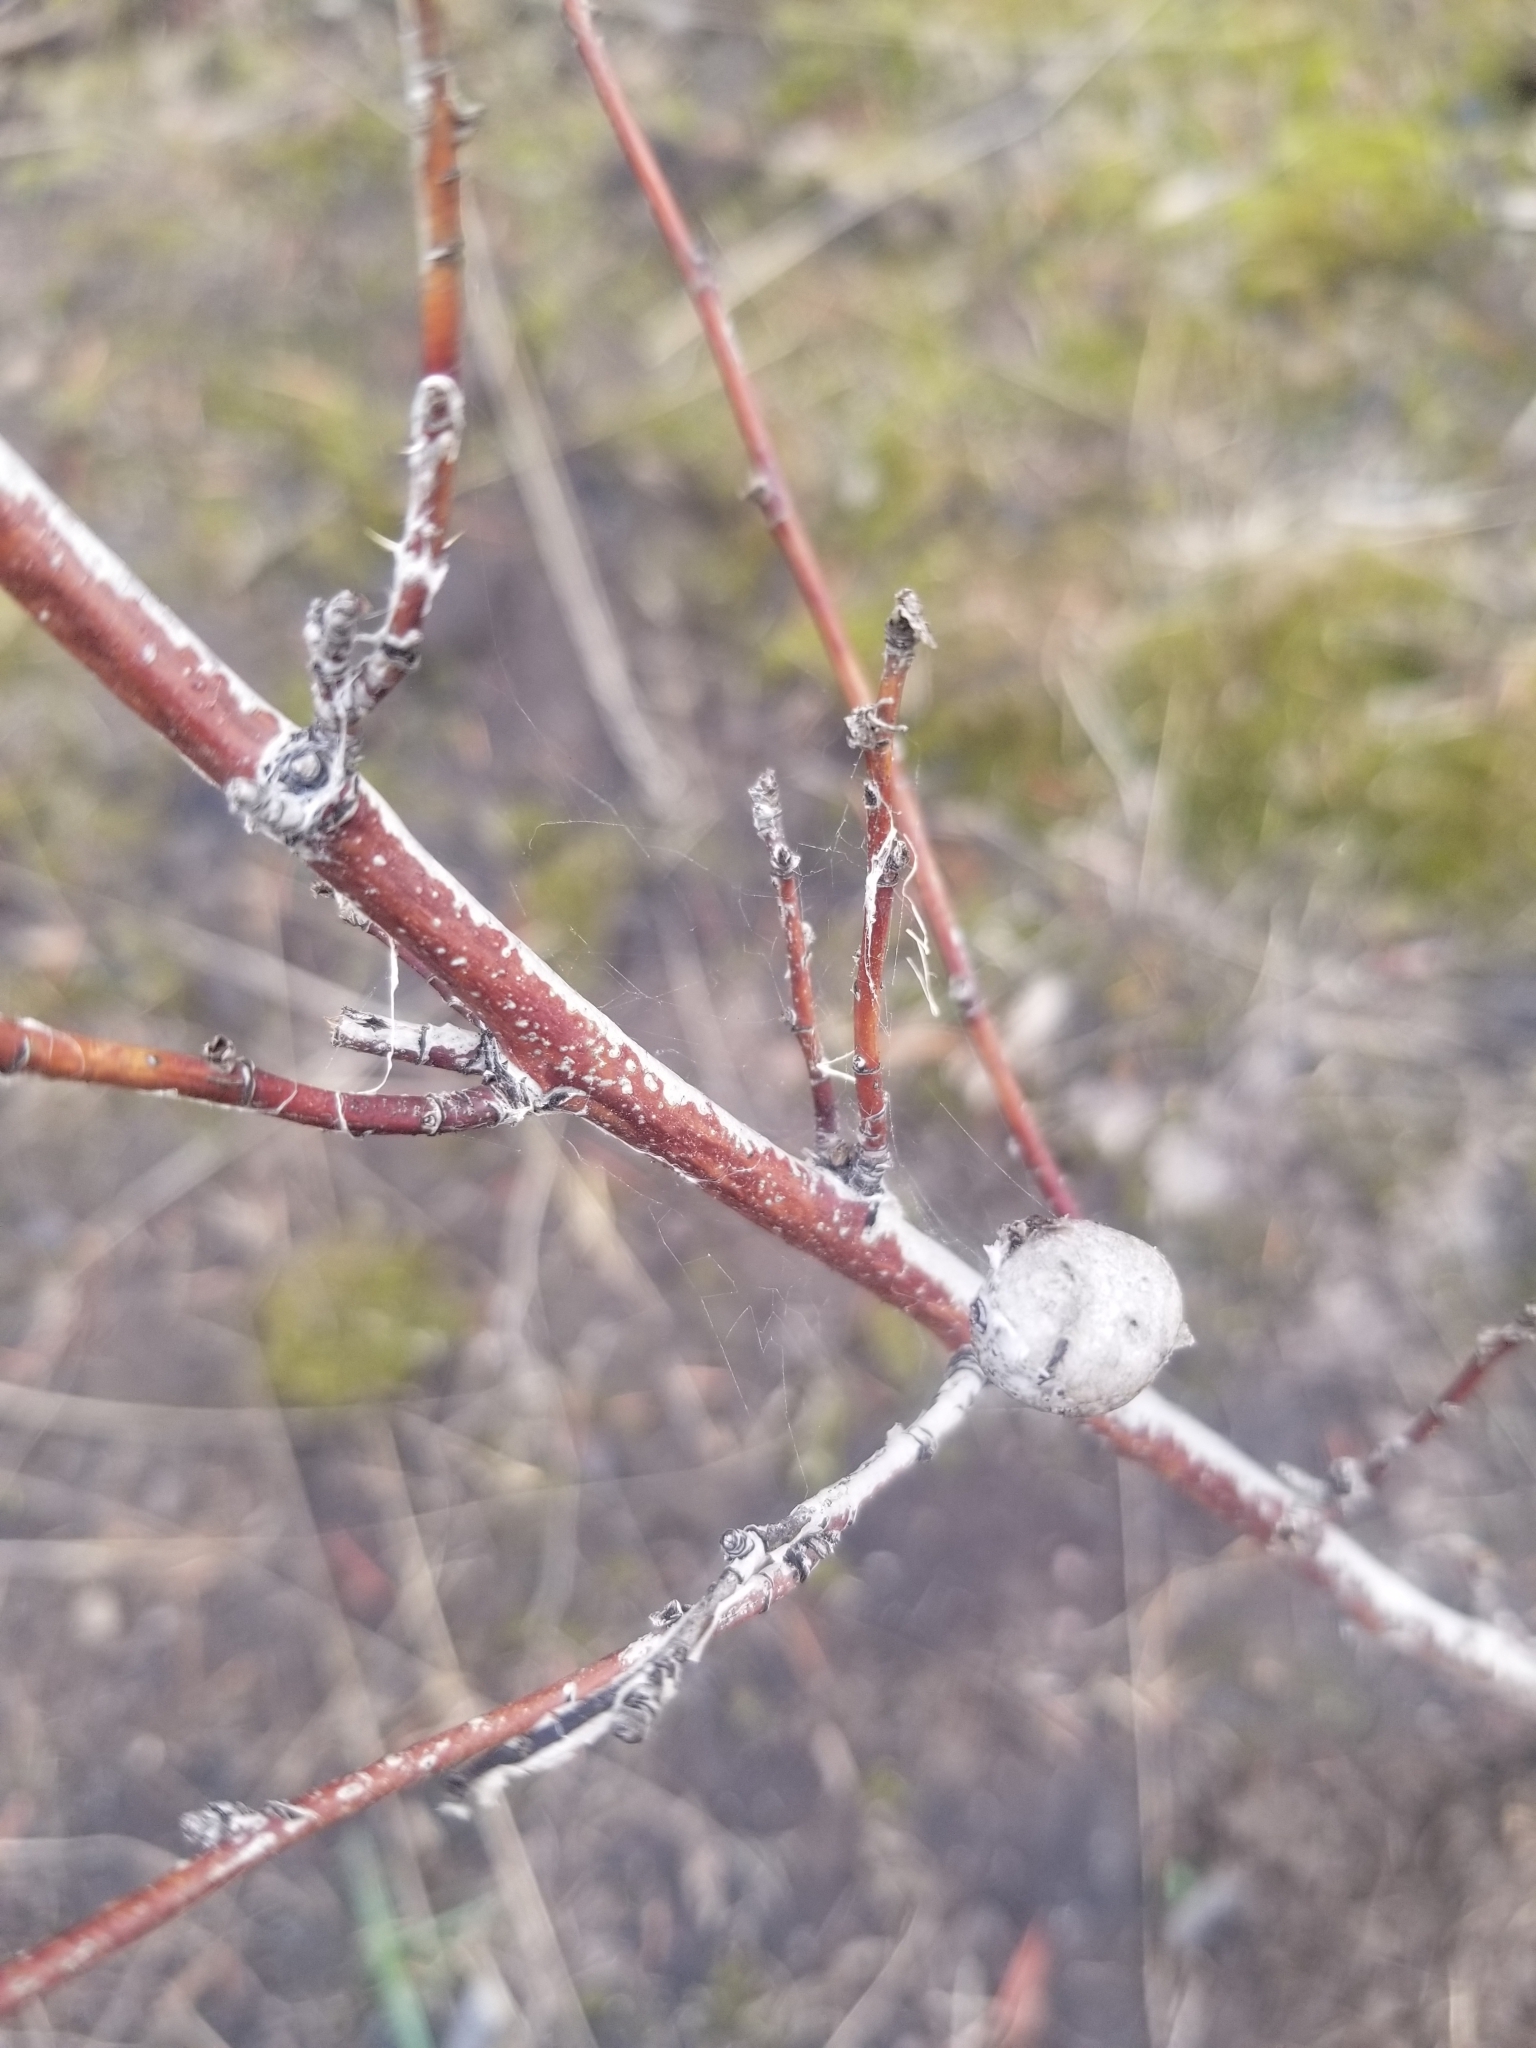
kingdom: Animalia
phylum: Arthropoda
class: Insecta
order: Hymenoptera
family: Cynipidae
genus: Diplolepis
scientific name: Diplolepis spinosa
